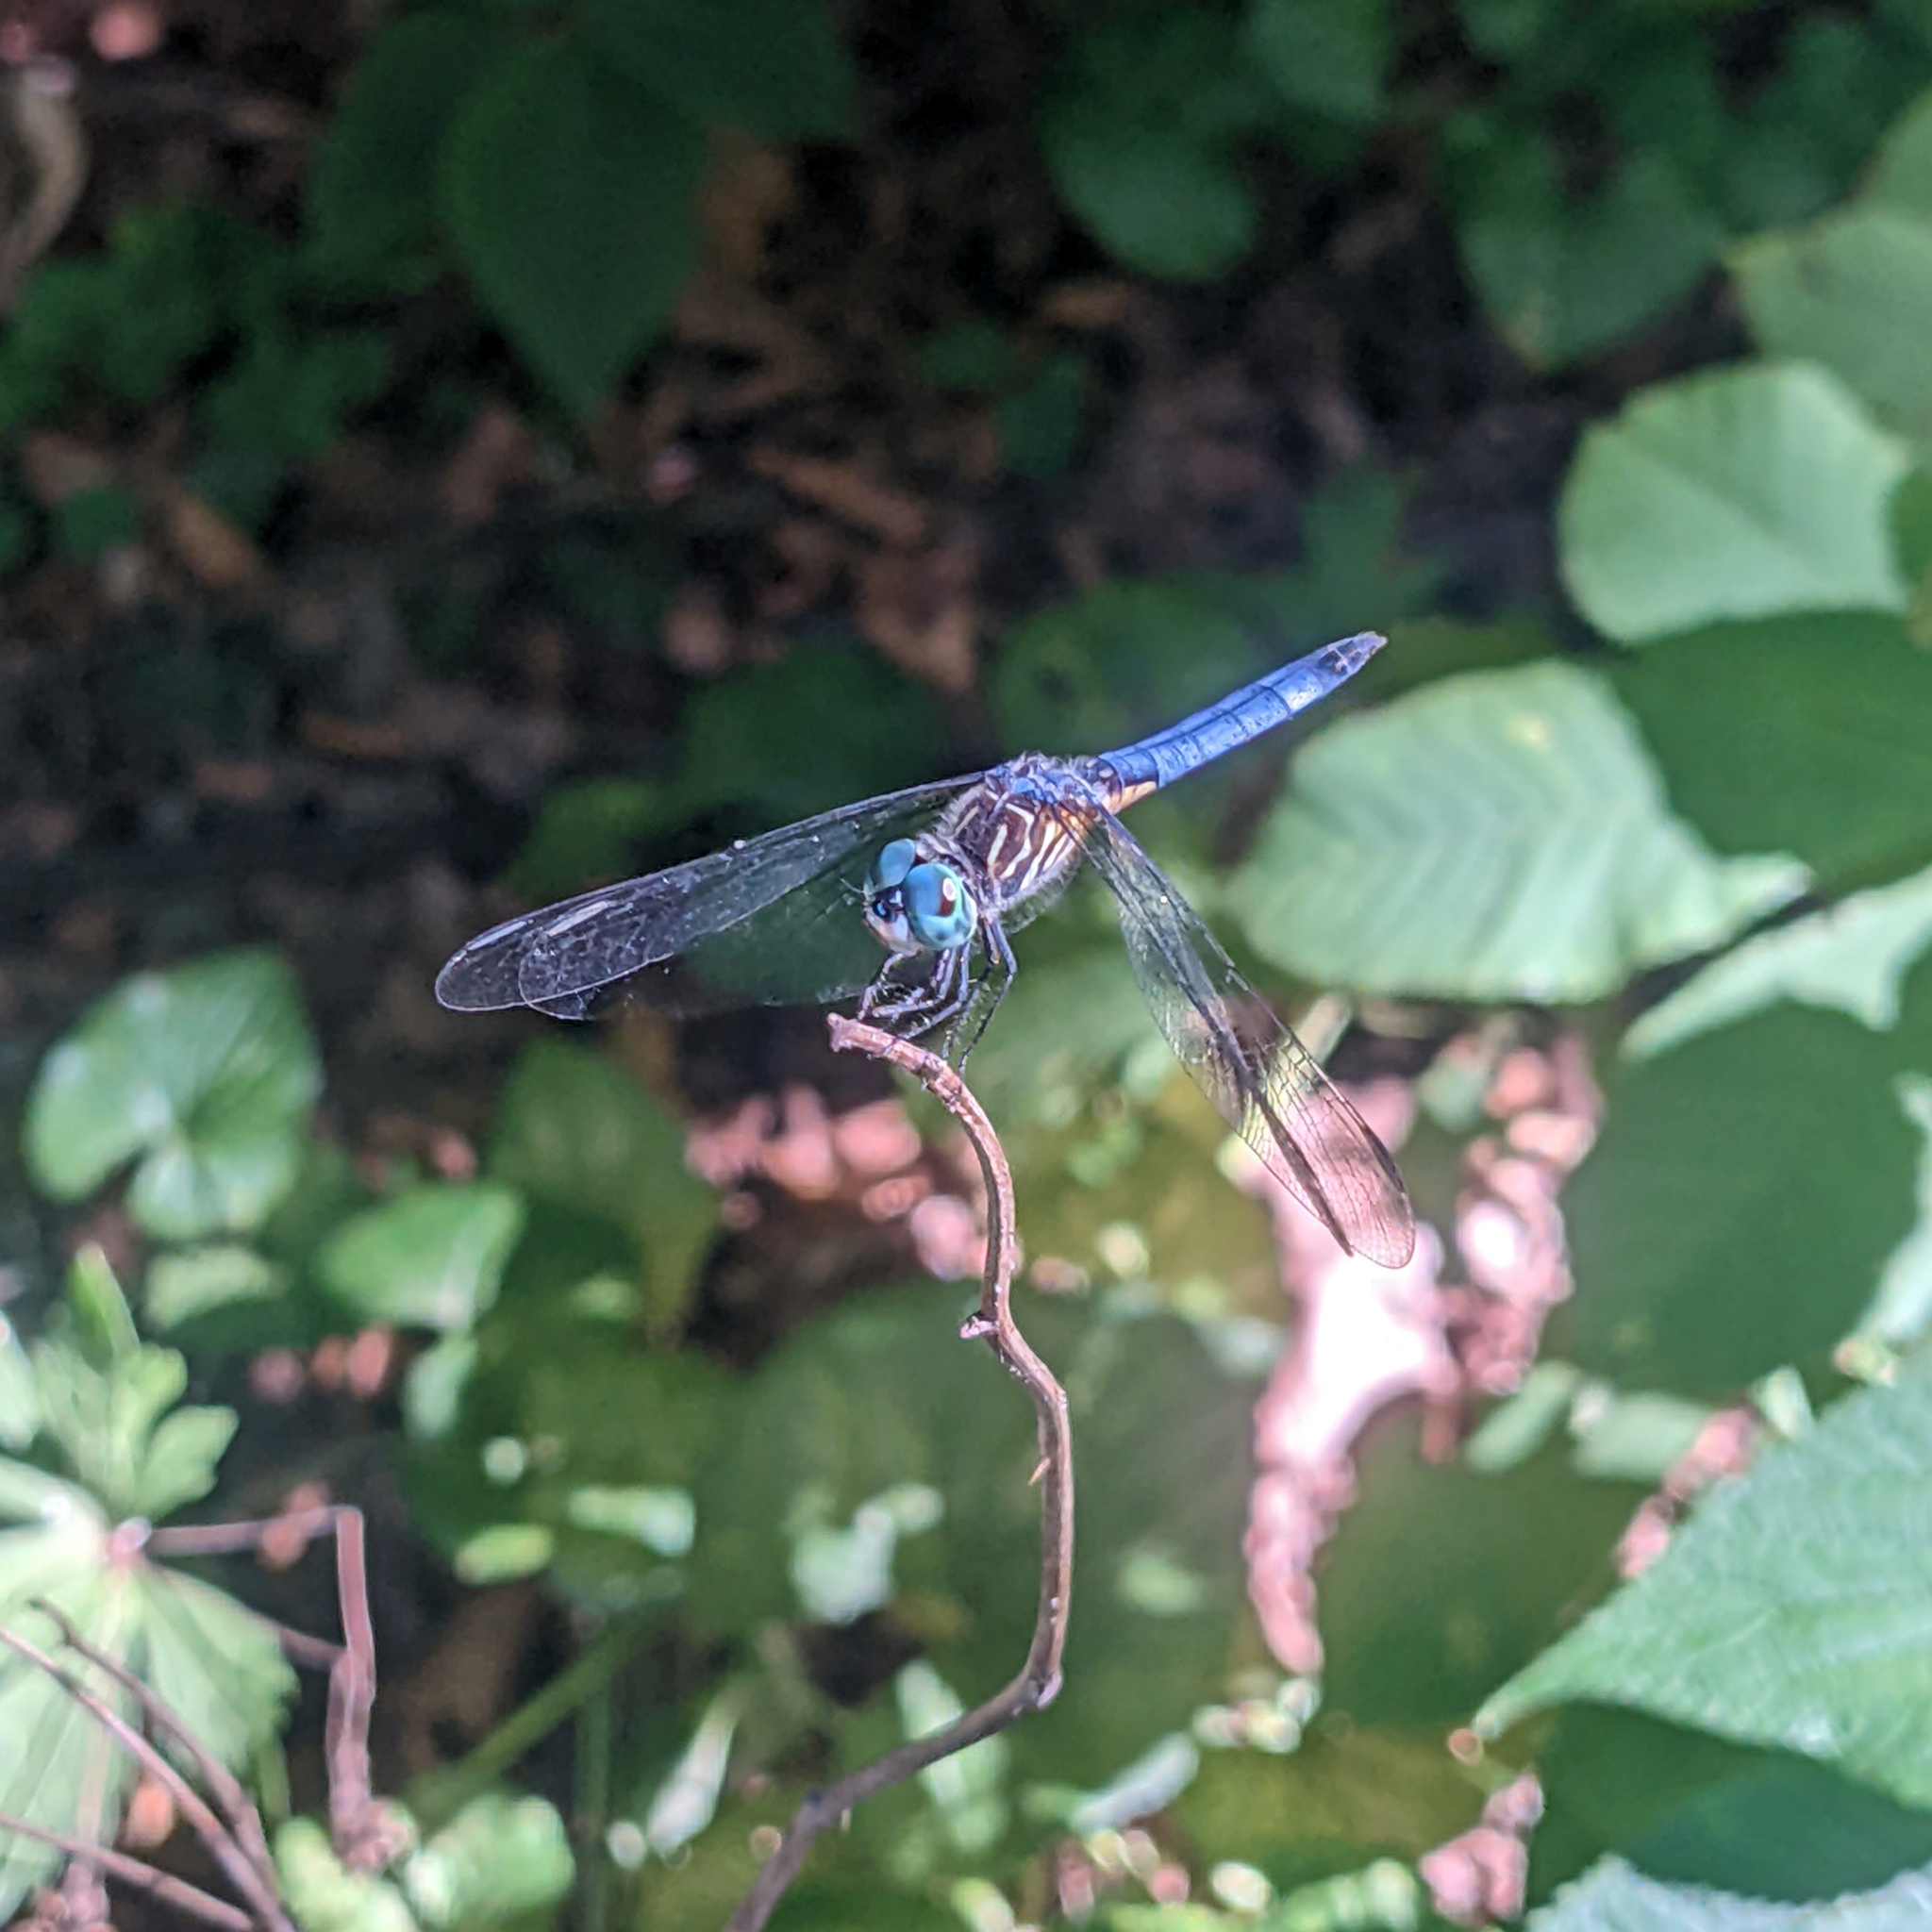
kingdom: Animalia
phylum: Arthropoda
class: Insecta
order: Odonata
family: Libellulidae
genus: Pachydiplax
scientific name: Pachydiplax longipennis
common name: Blue dasher
